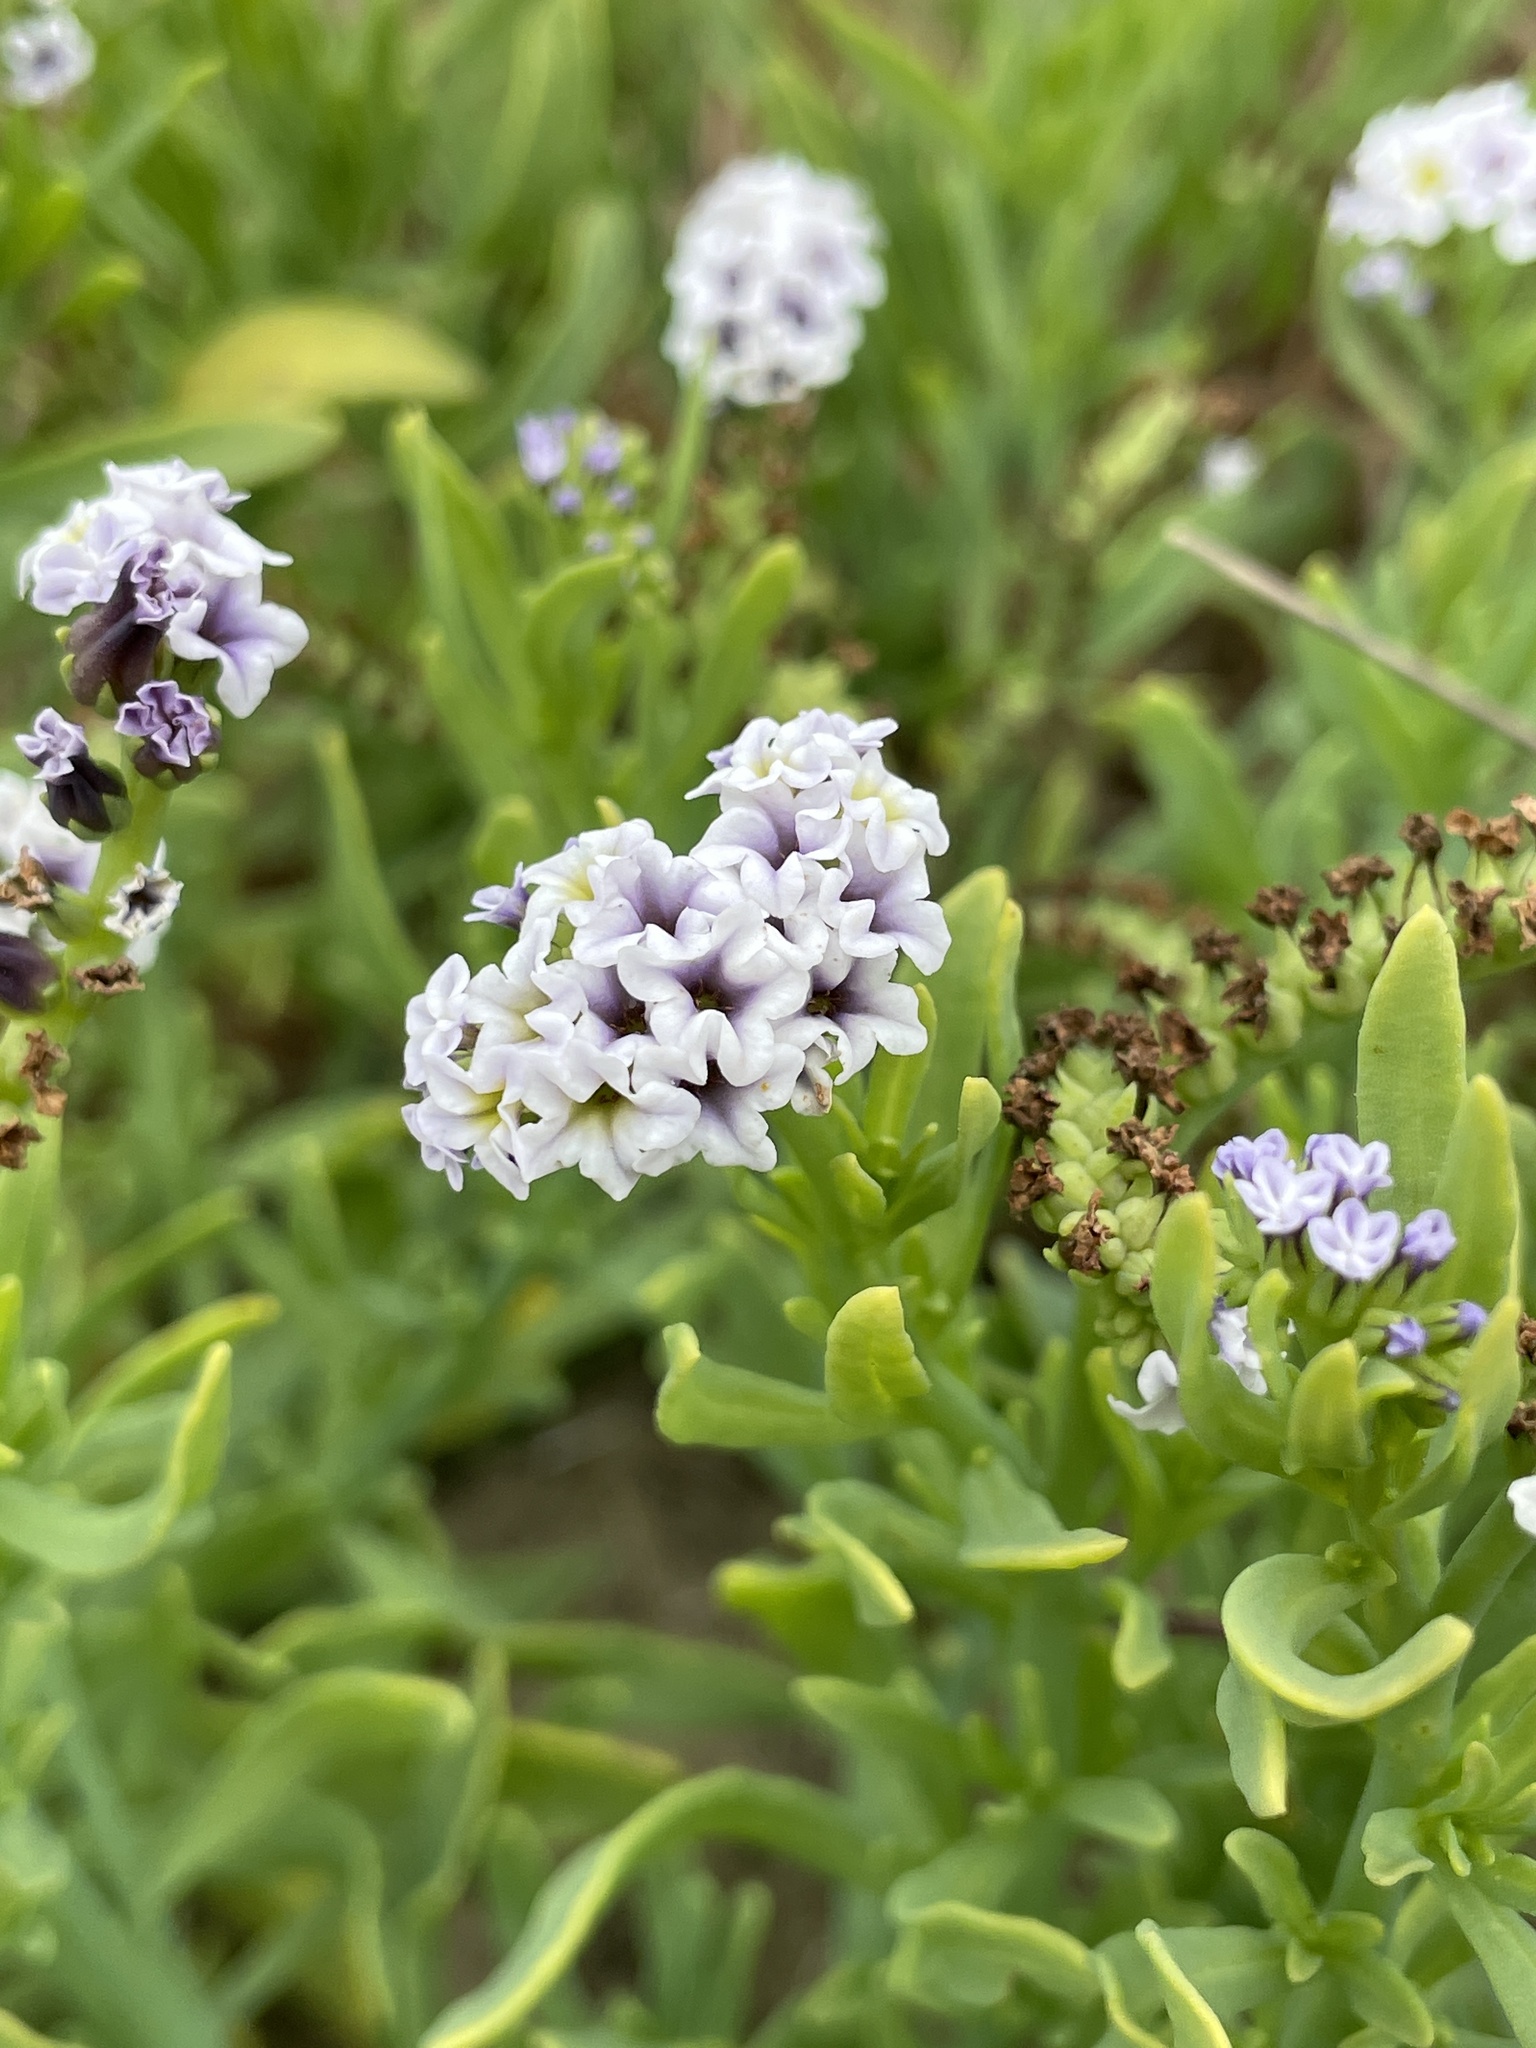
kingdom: Plantae
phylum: Tracheophyta
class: Magnoliopsida
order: Boraginales
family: Heliotropiaceae
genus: Heliotropium
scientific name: Heliotropium curassavicum
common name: Seaside heliotrope
